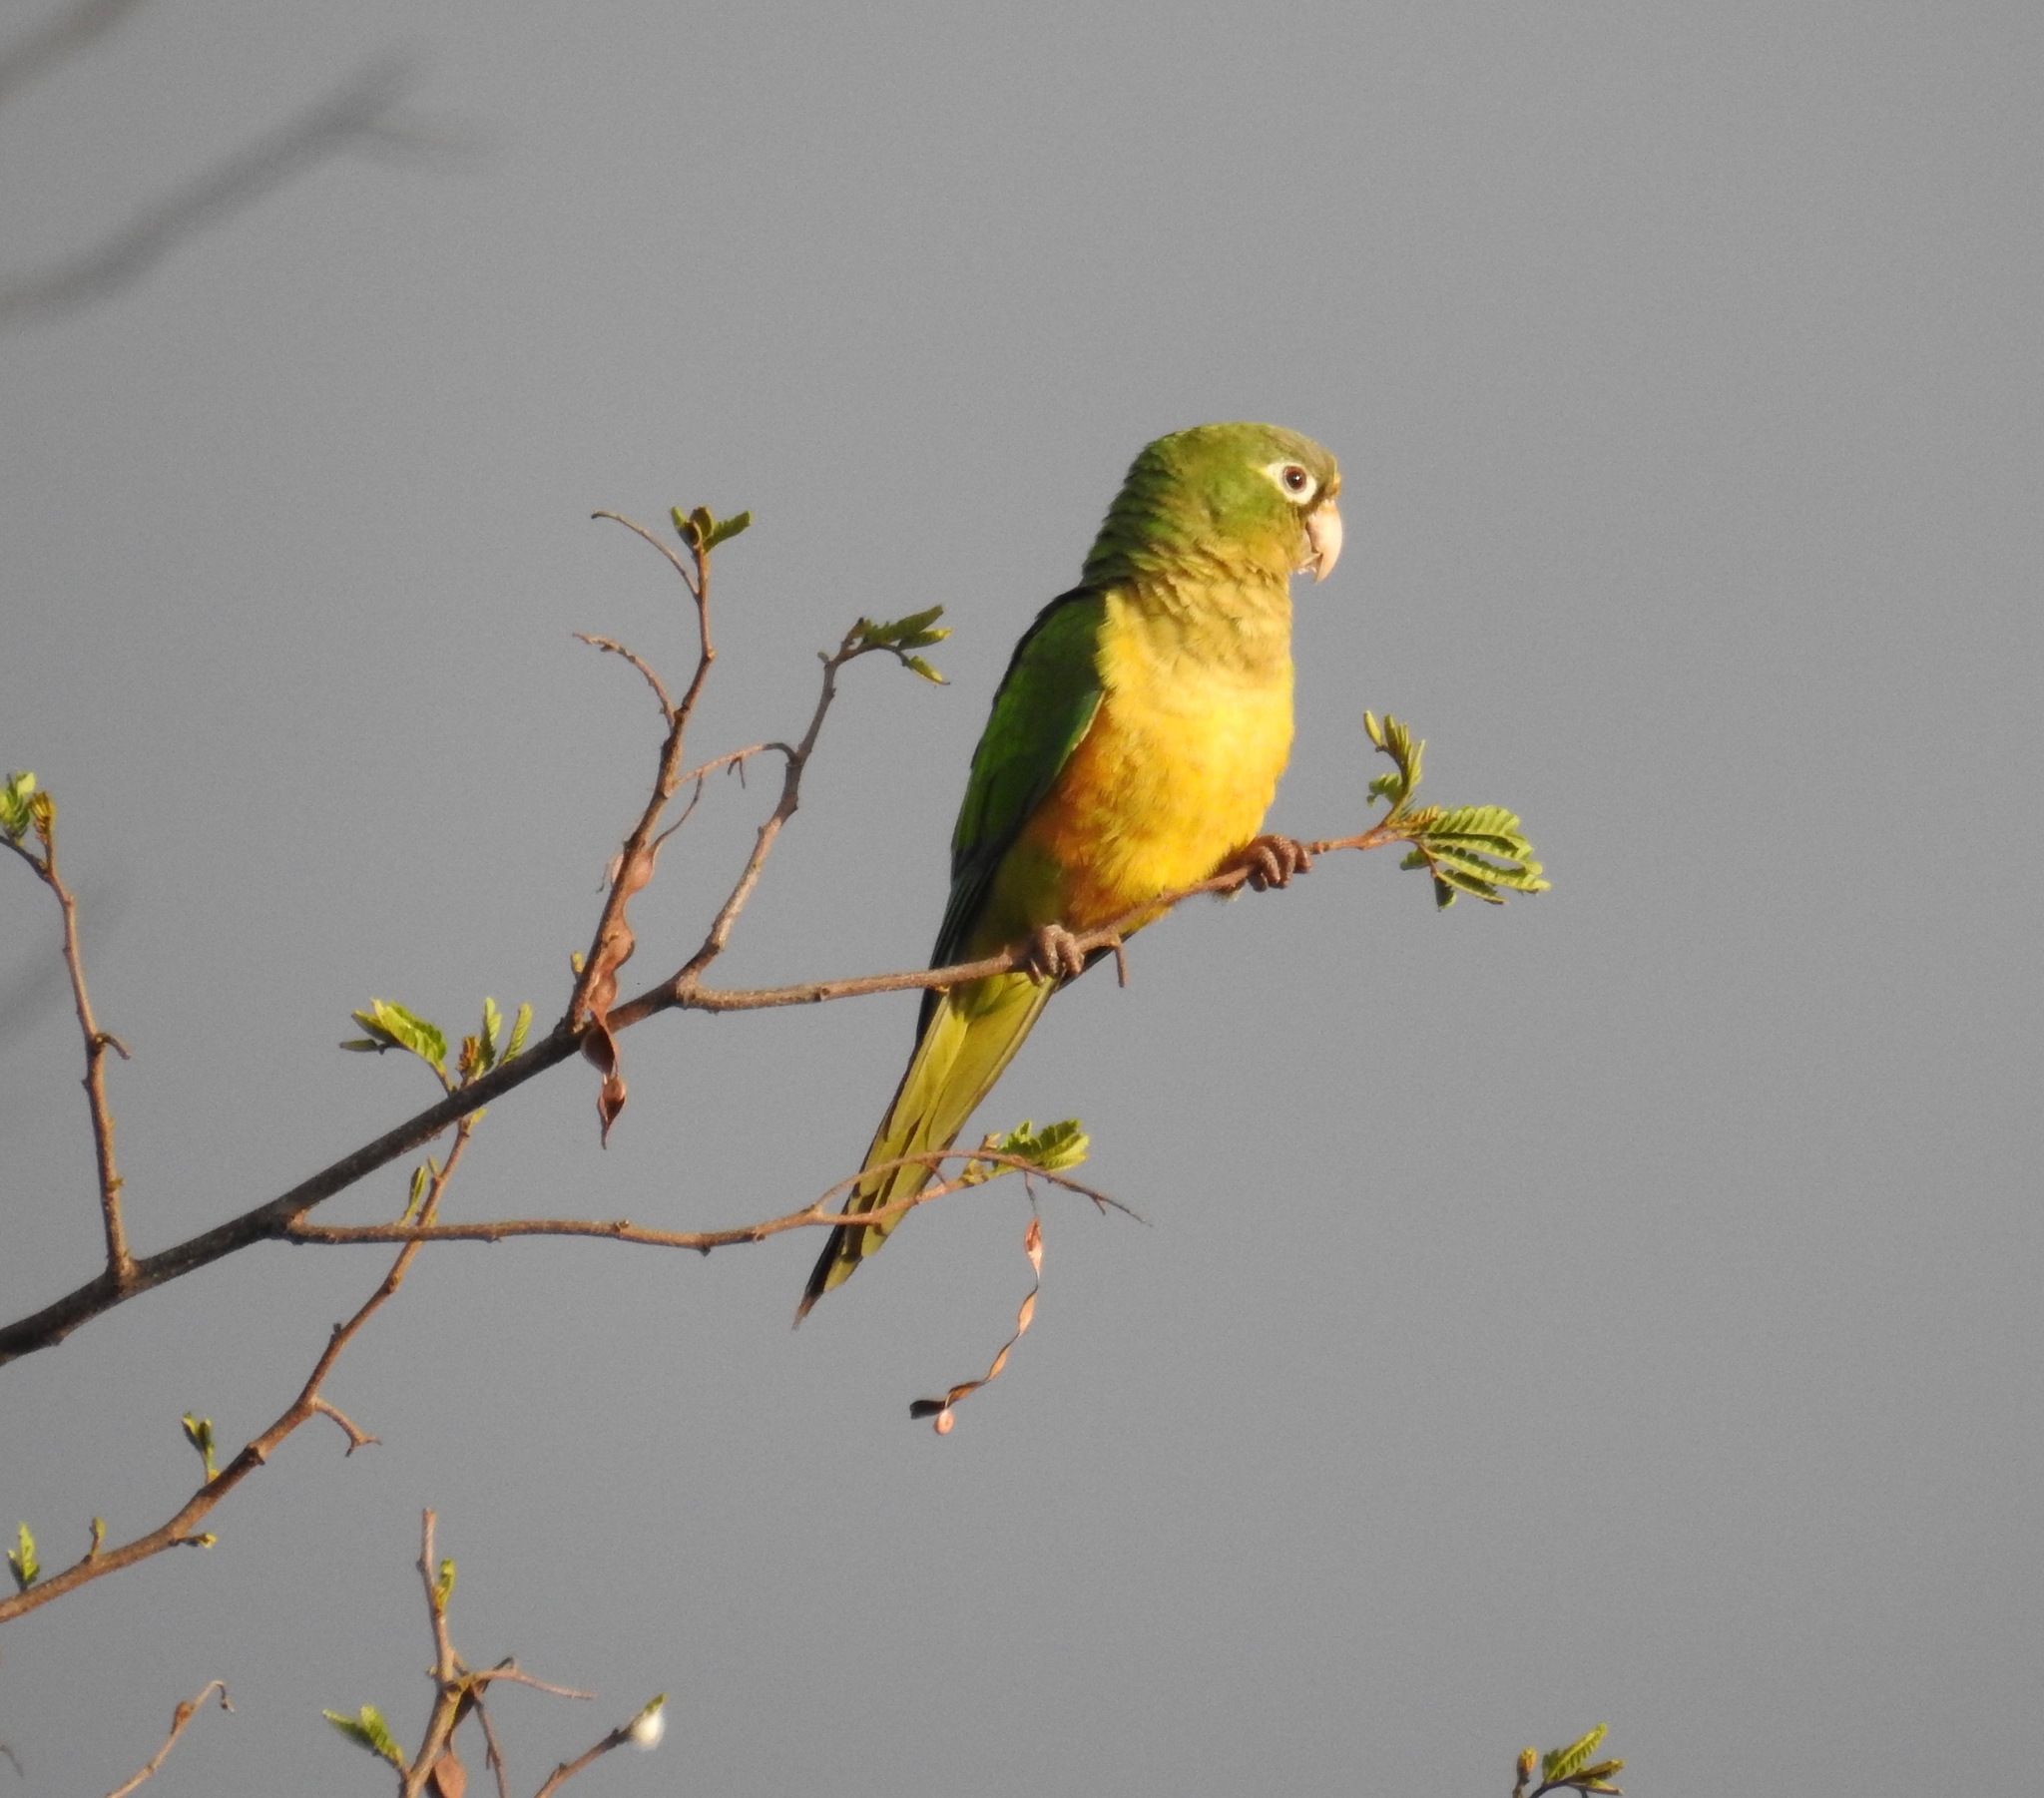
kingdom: Animalia
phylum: Chordata
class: Aves
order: Psittaciformes
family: Psittacidae
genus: Aratinga
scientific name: Aratinga cactorum
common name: Caatinga parakeet
